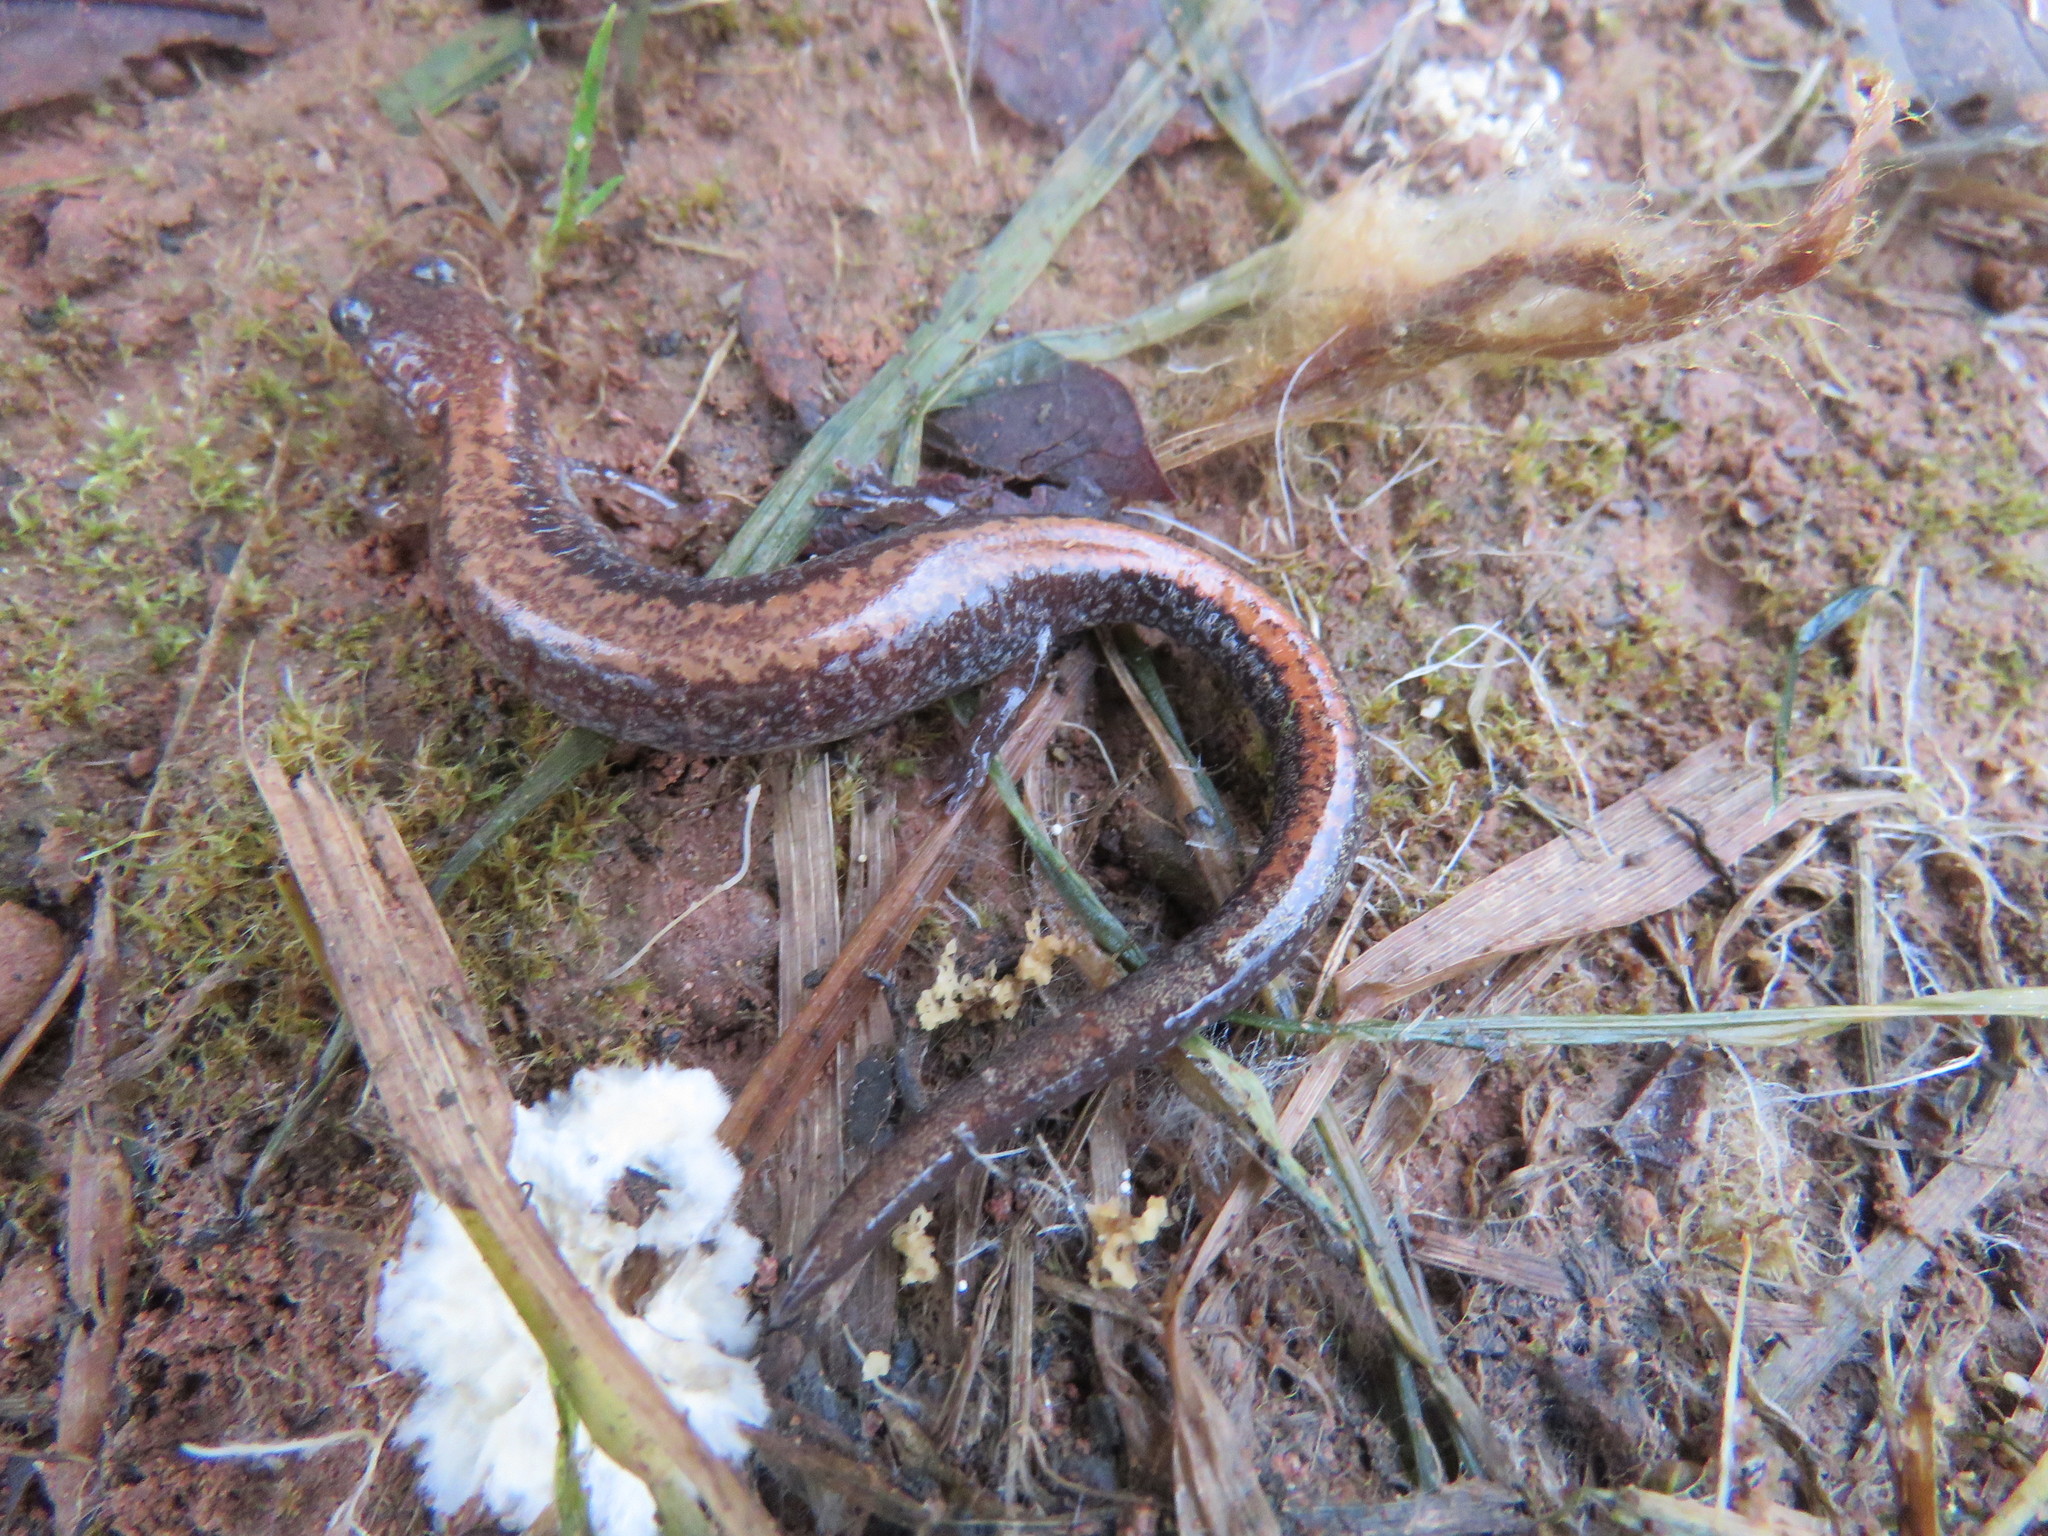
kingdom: Animalia
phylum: Chordata
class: Amphibia
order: Caudata
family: Plethodontidae
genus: Plethodon
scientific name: Plethodon cinereus
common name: Redback salamander
